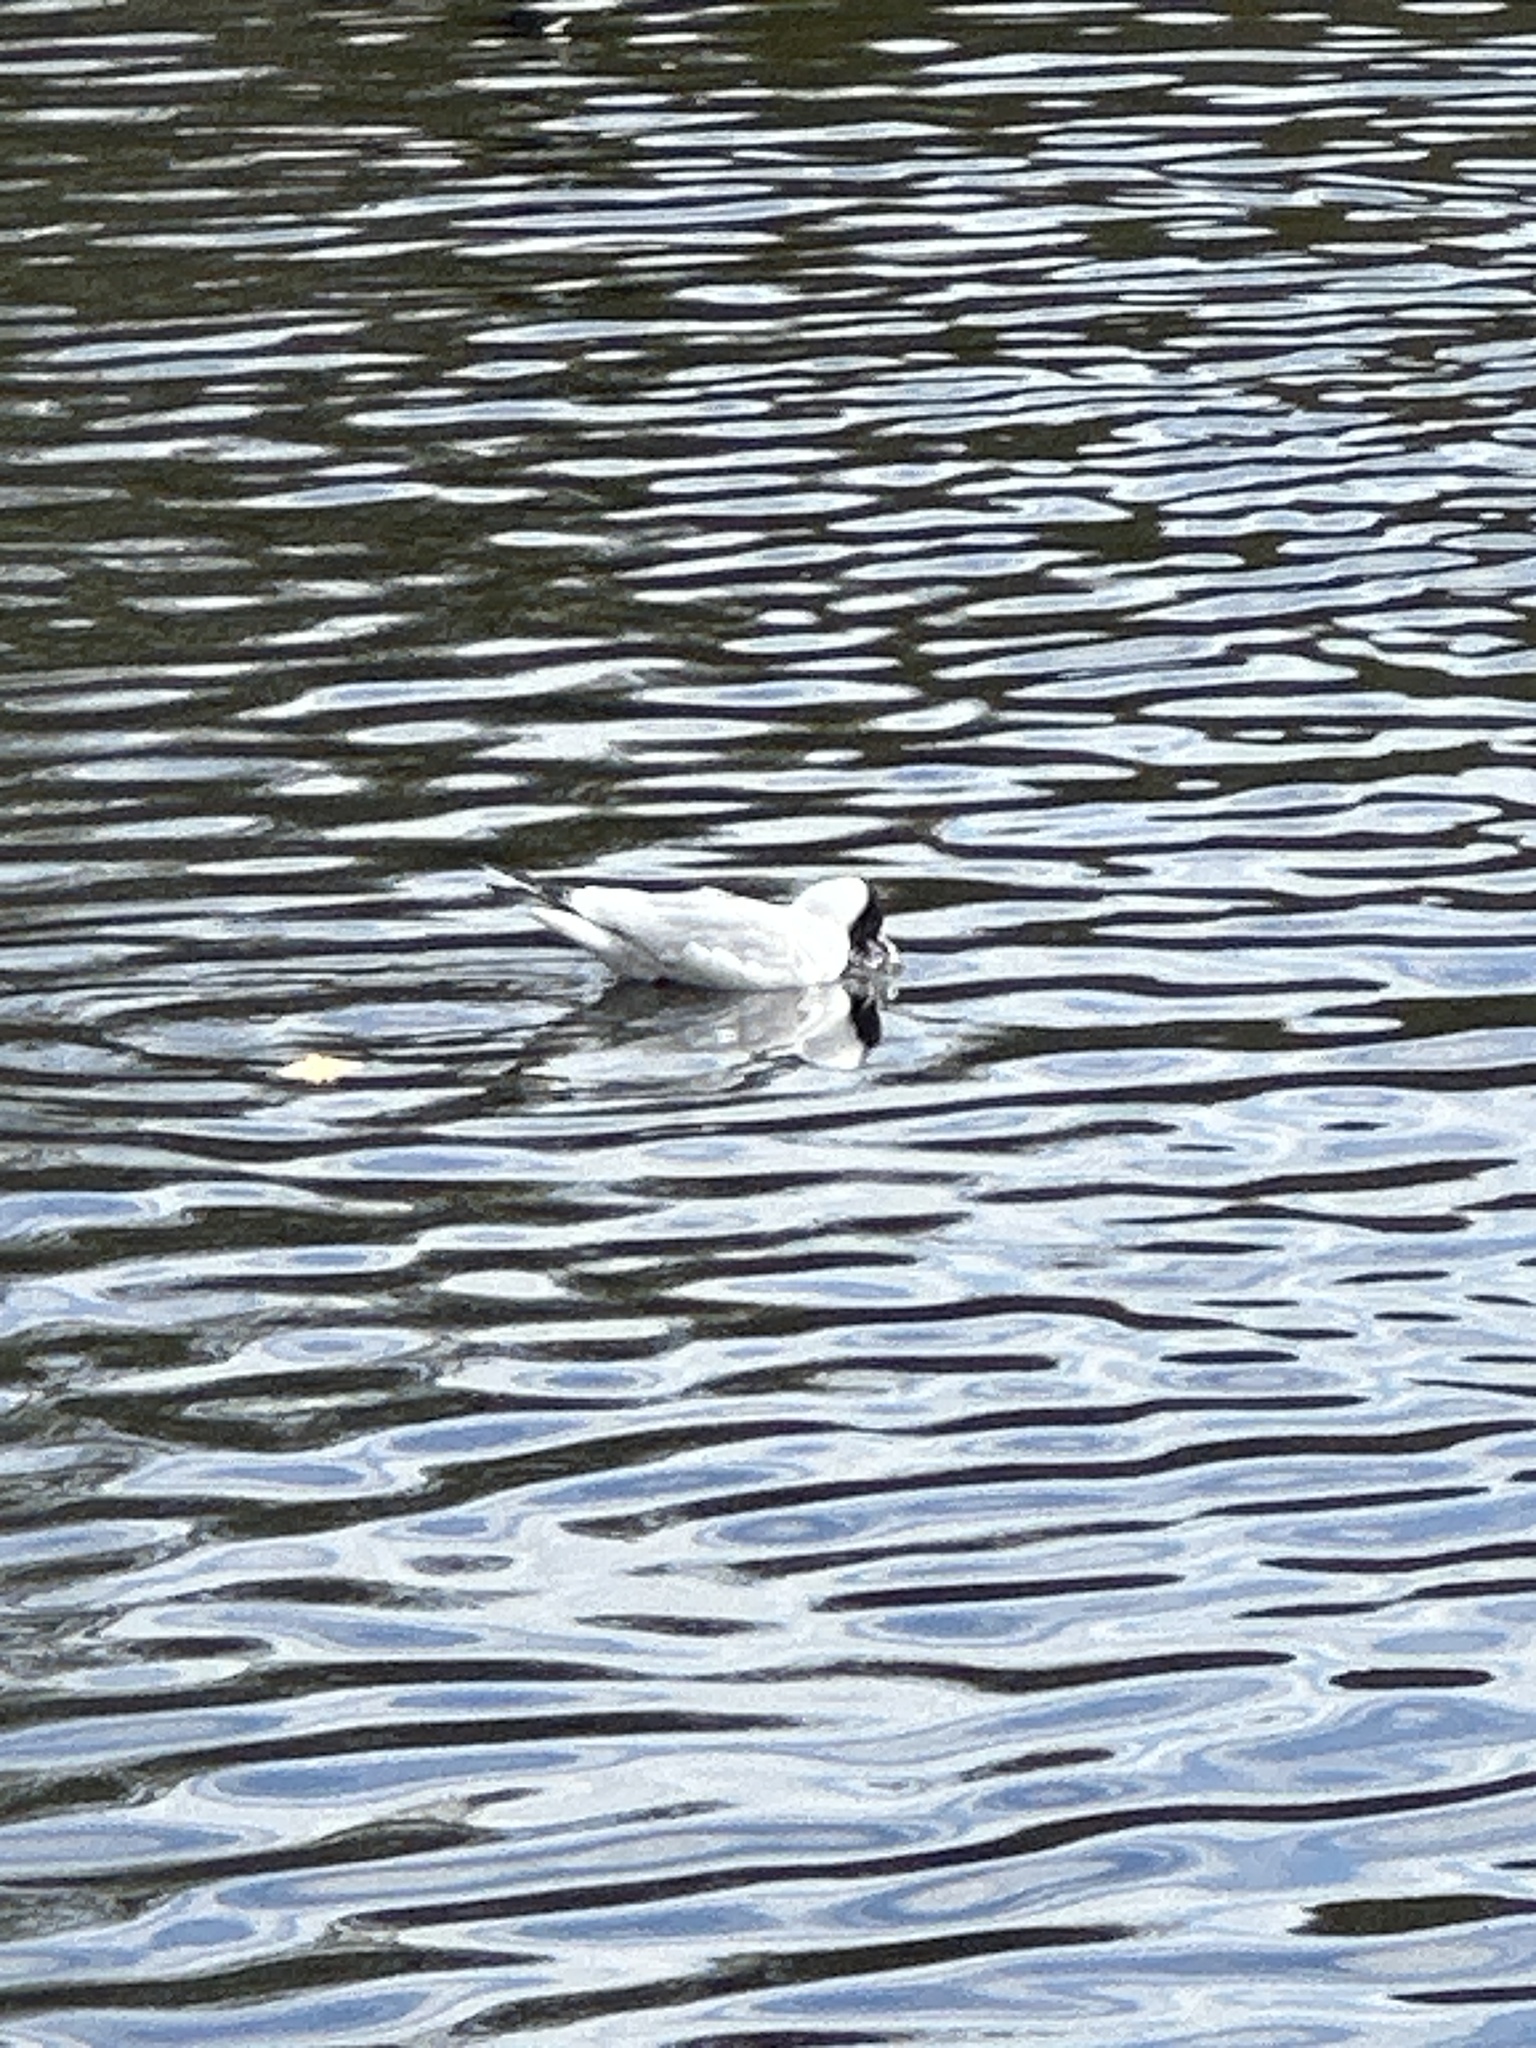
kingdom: Animalia
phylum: Chordata
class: Aves
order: Charadriiformes
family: Laridae
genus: Chroicocephalus
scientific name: Chroicocephalus ridibundus
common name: Black-headed gull
